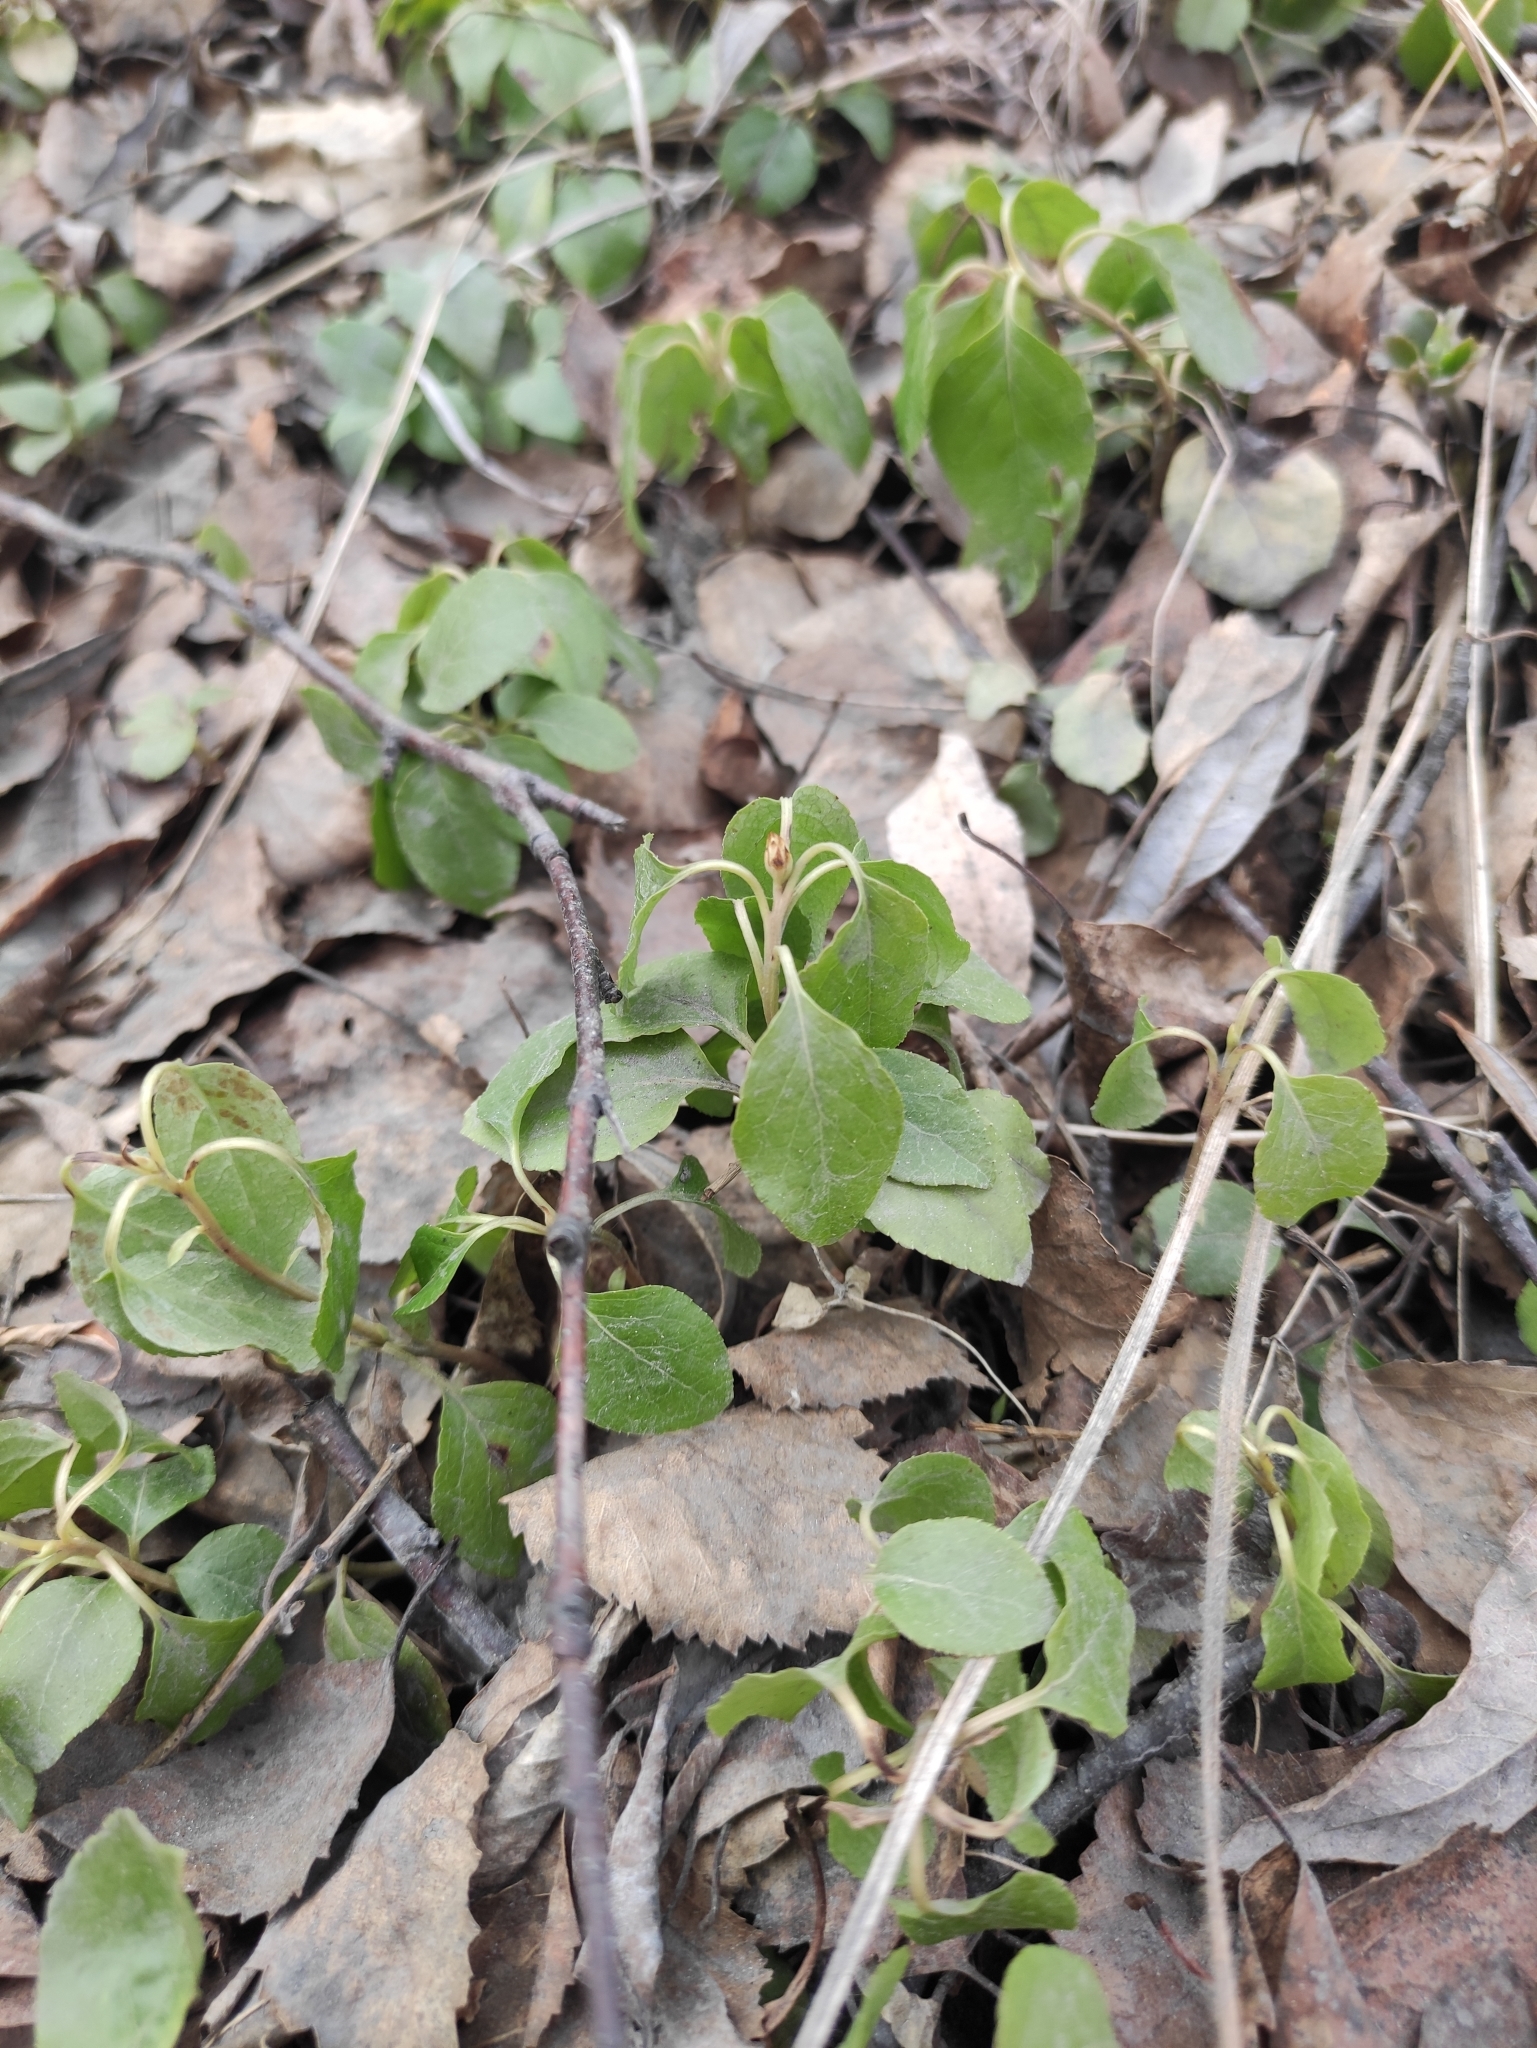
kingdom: Plantae
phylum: Tracheophyta
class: Magnoliopsida
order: Ericales
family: Ericaceae
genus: Orthilia
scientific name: Orthilia secunda
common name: One-sided orthilia
